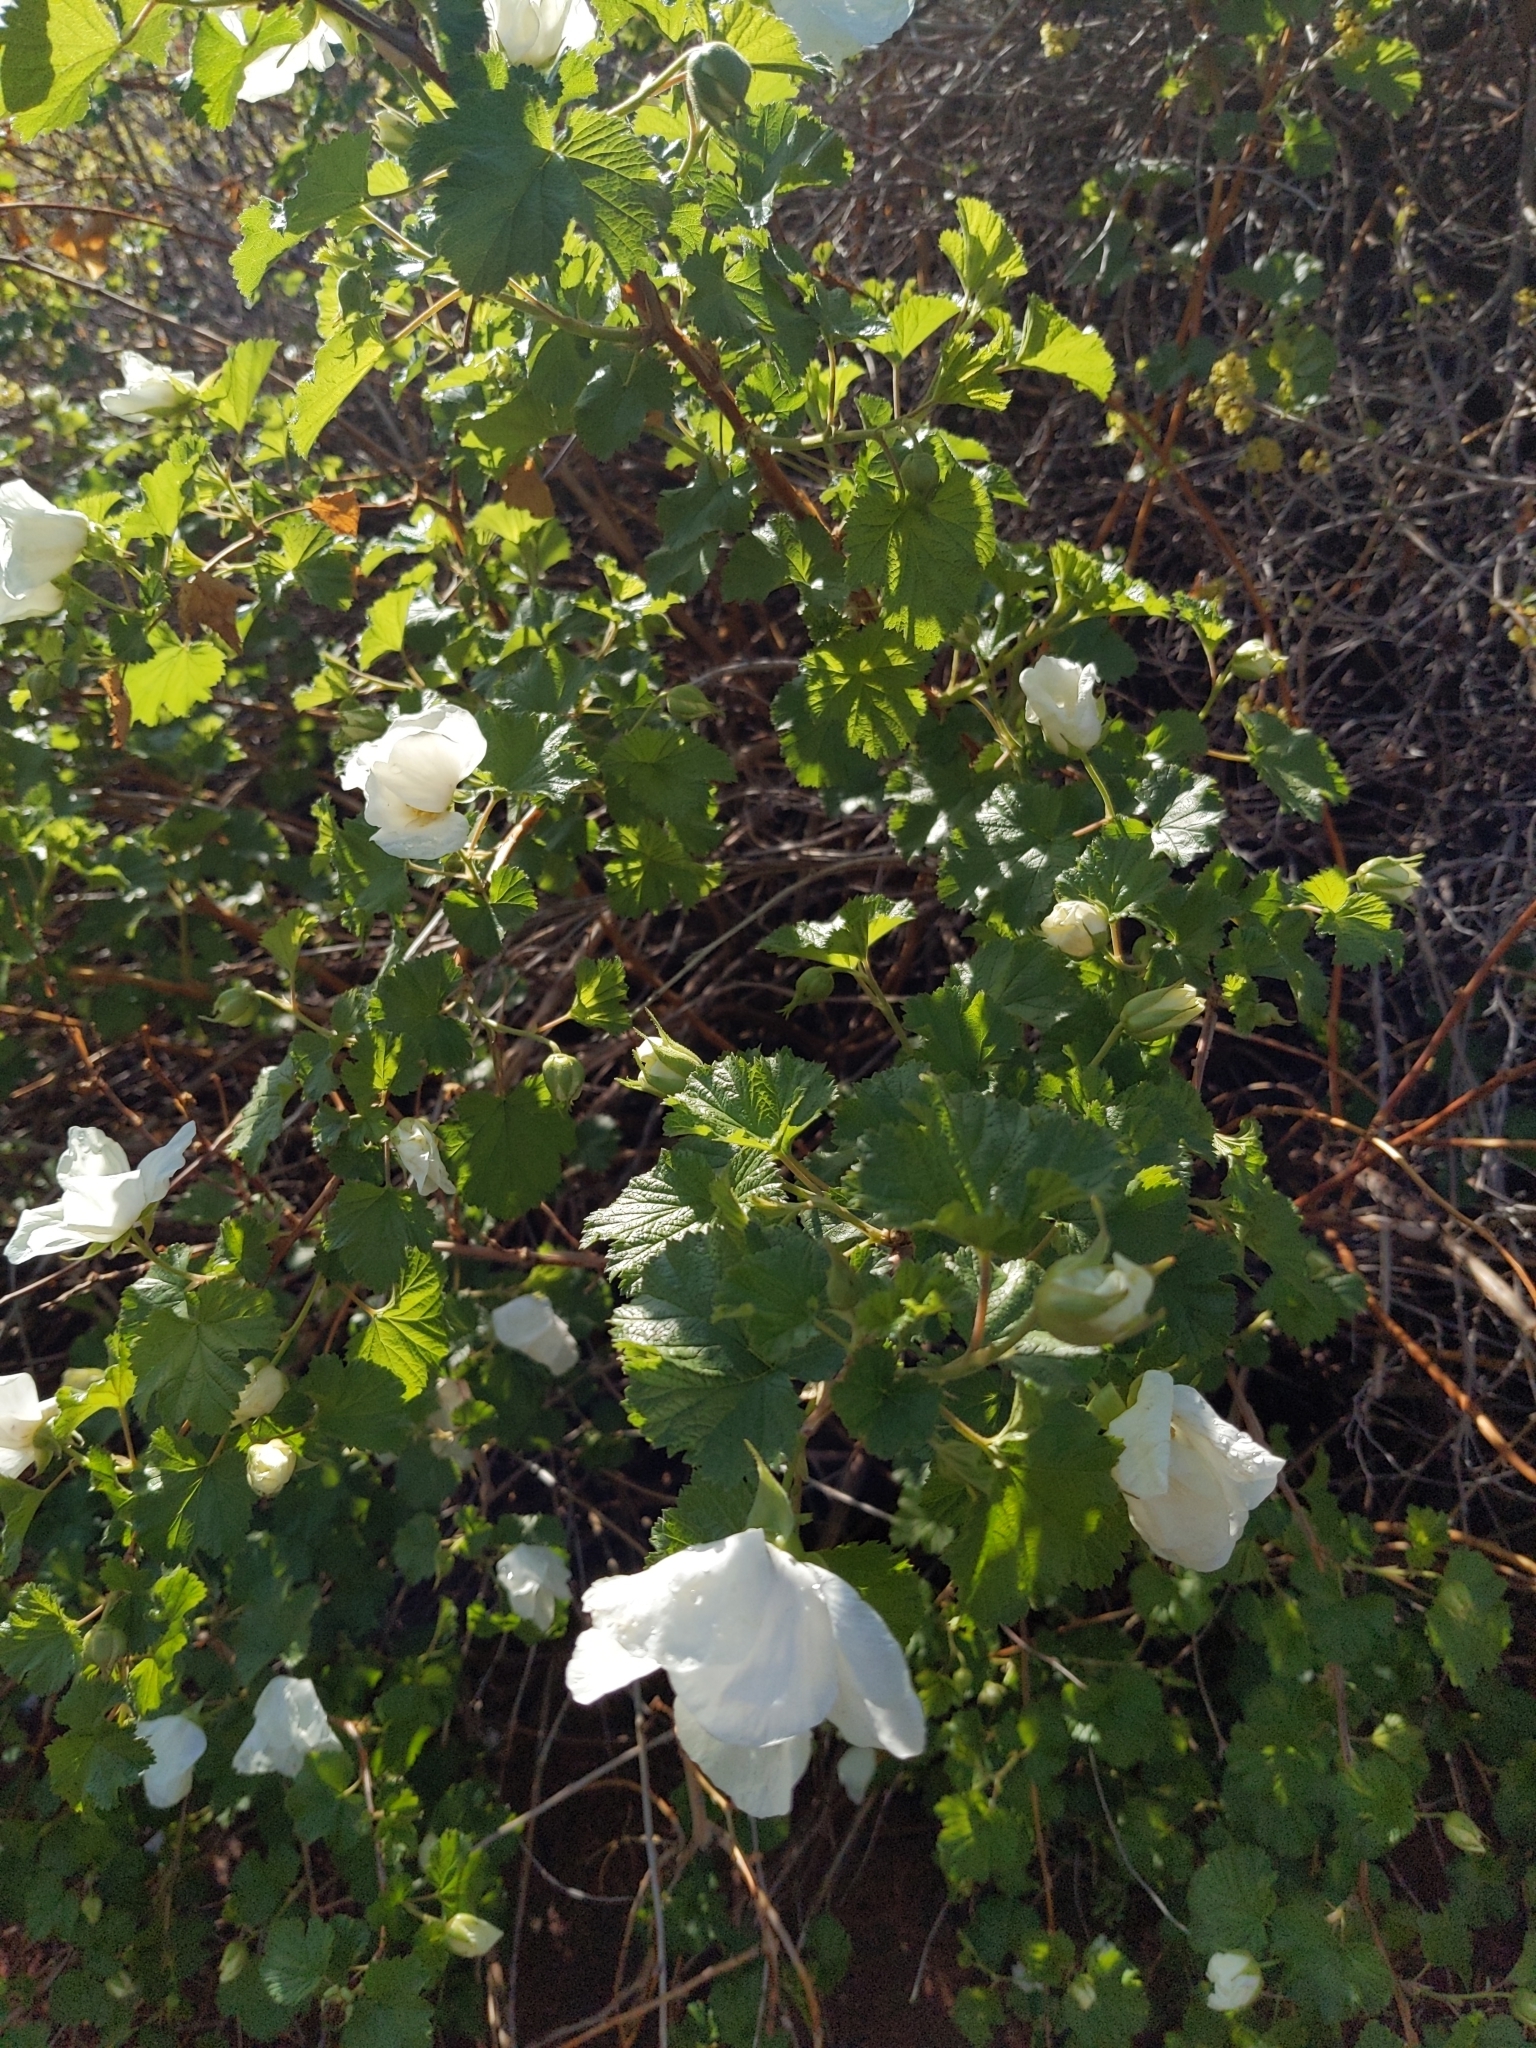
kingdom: Plantae
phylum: Tracheophyta
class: Magnoliopsida
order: Rosales
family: Rosaceae
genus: Rubus
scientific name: Rubus deliciosus
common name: Rocky mountain raspberry
